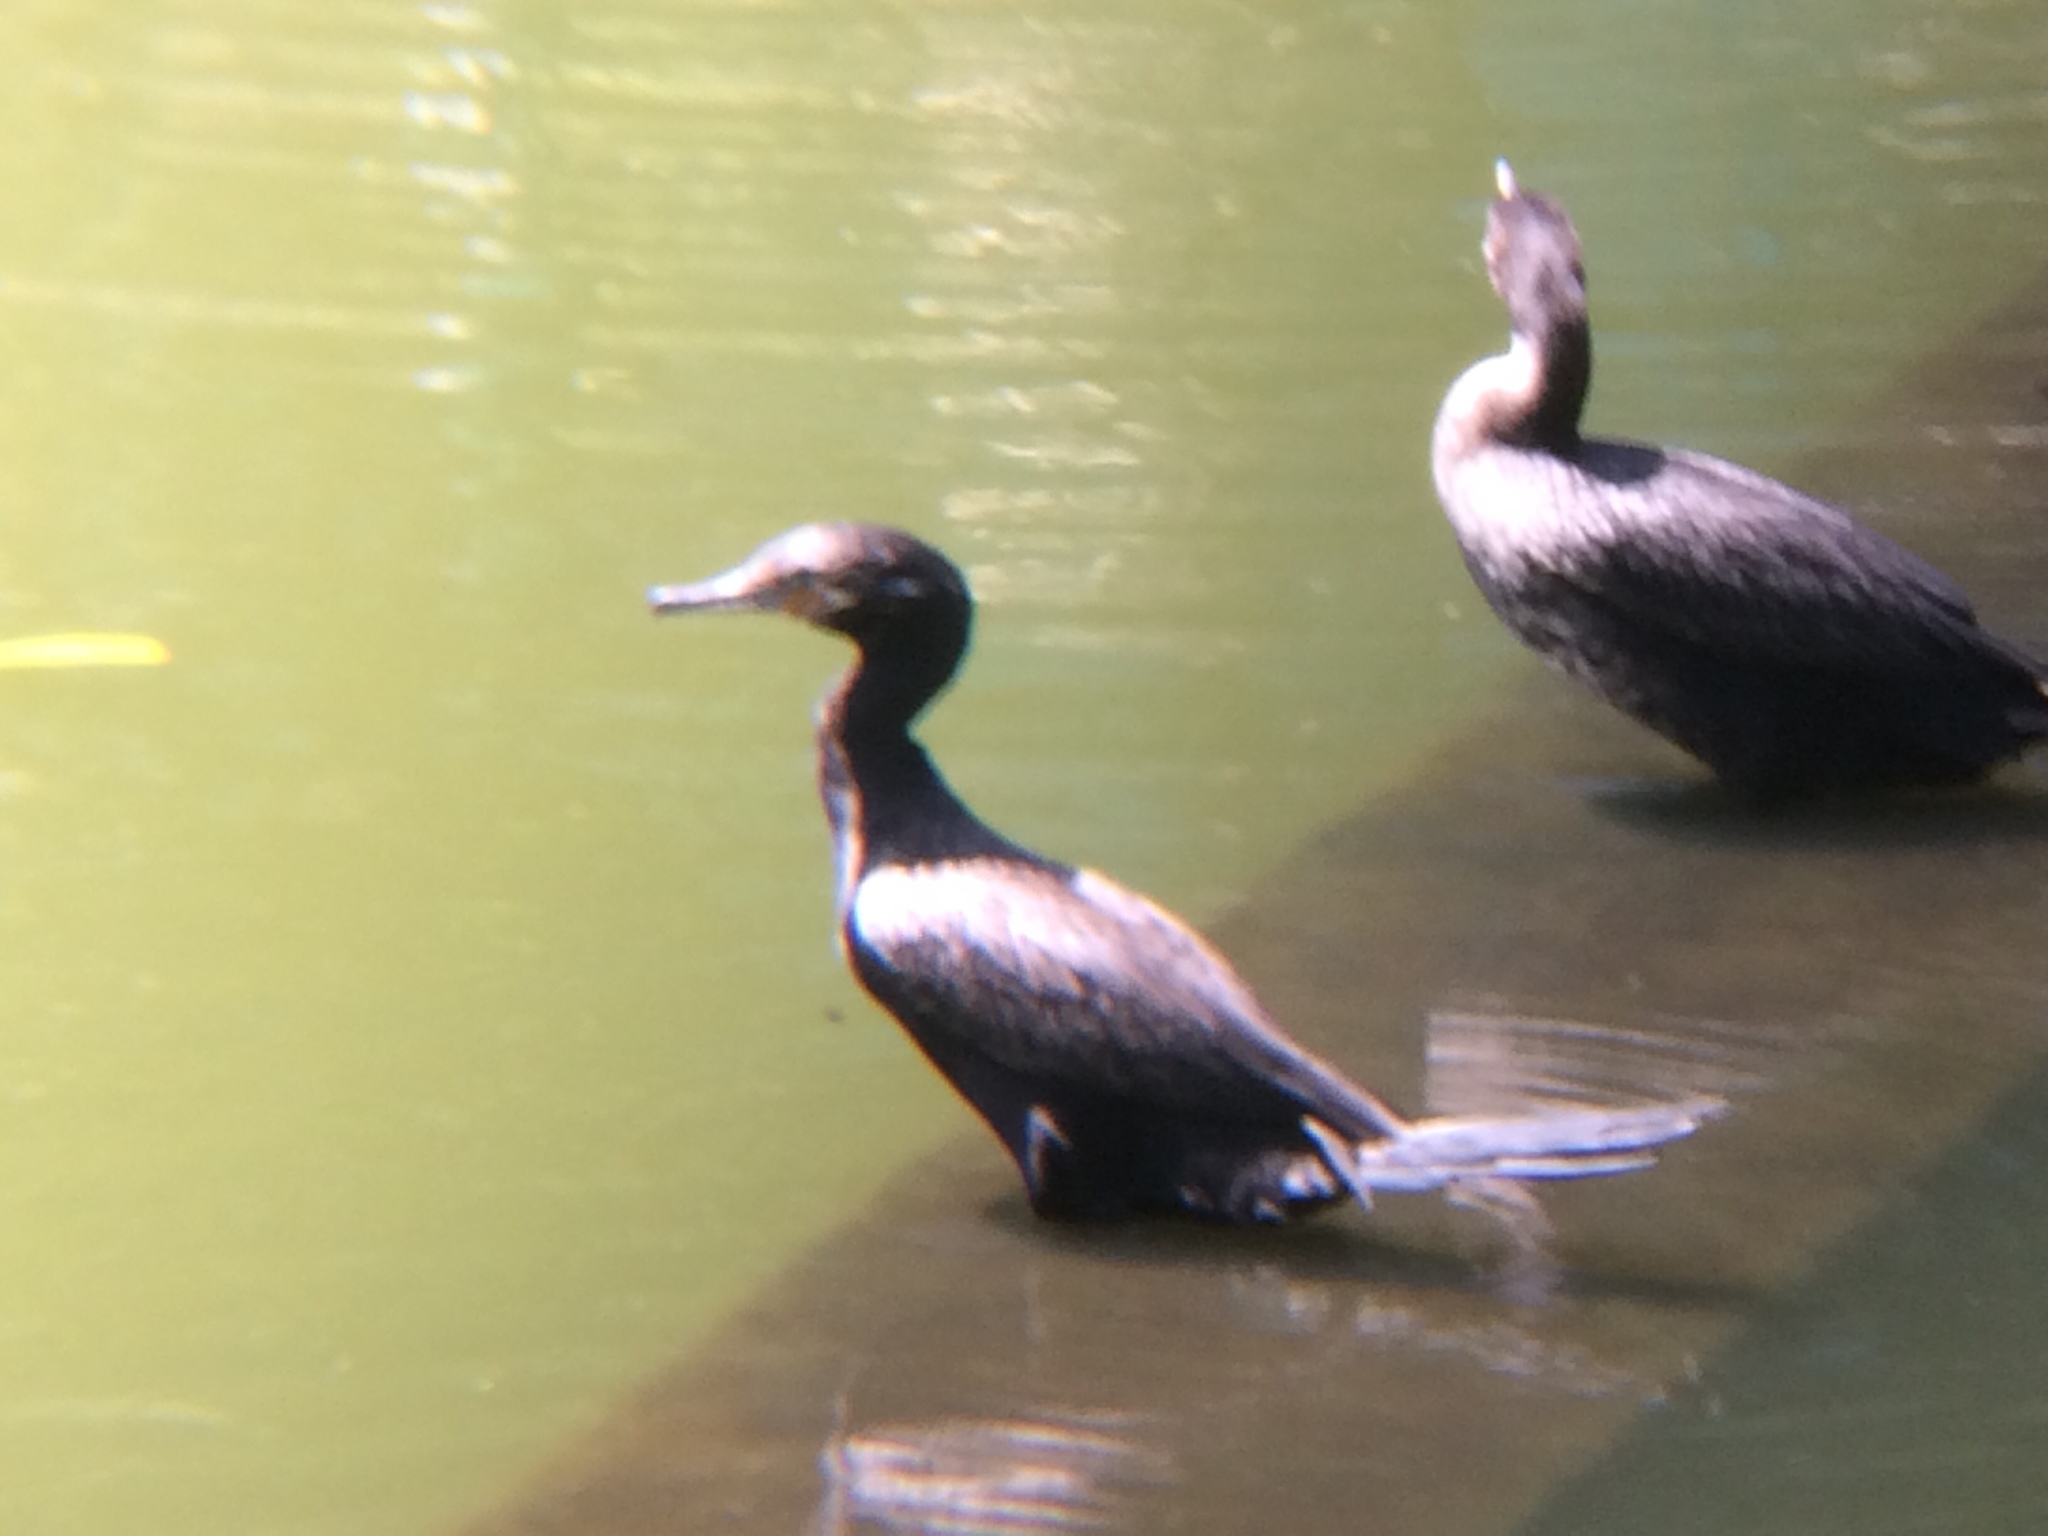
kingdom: Animalia
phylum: Chordata
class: Aves
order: Suliformes
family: Phalacrocoracidae
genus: Phalacrocorax
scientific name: Phalacrocorax brasilianus
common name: Neotropic cormorant
